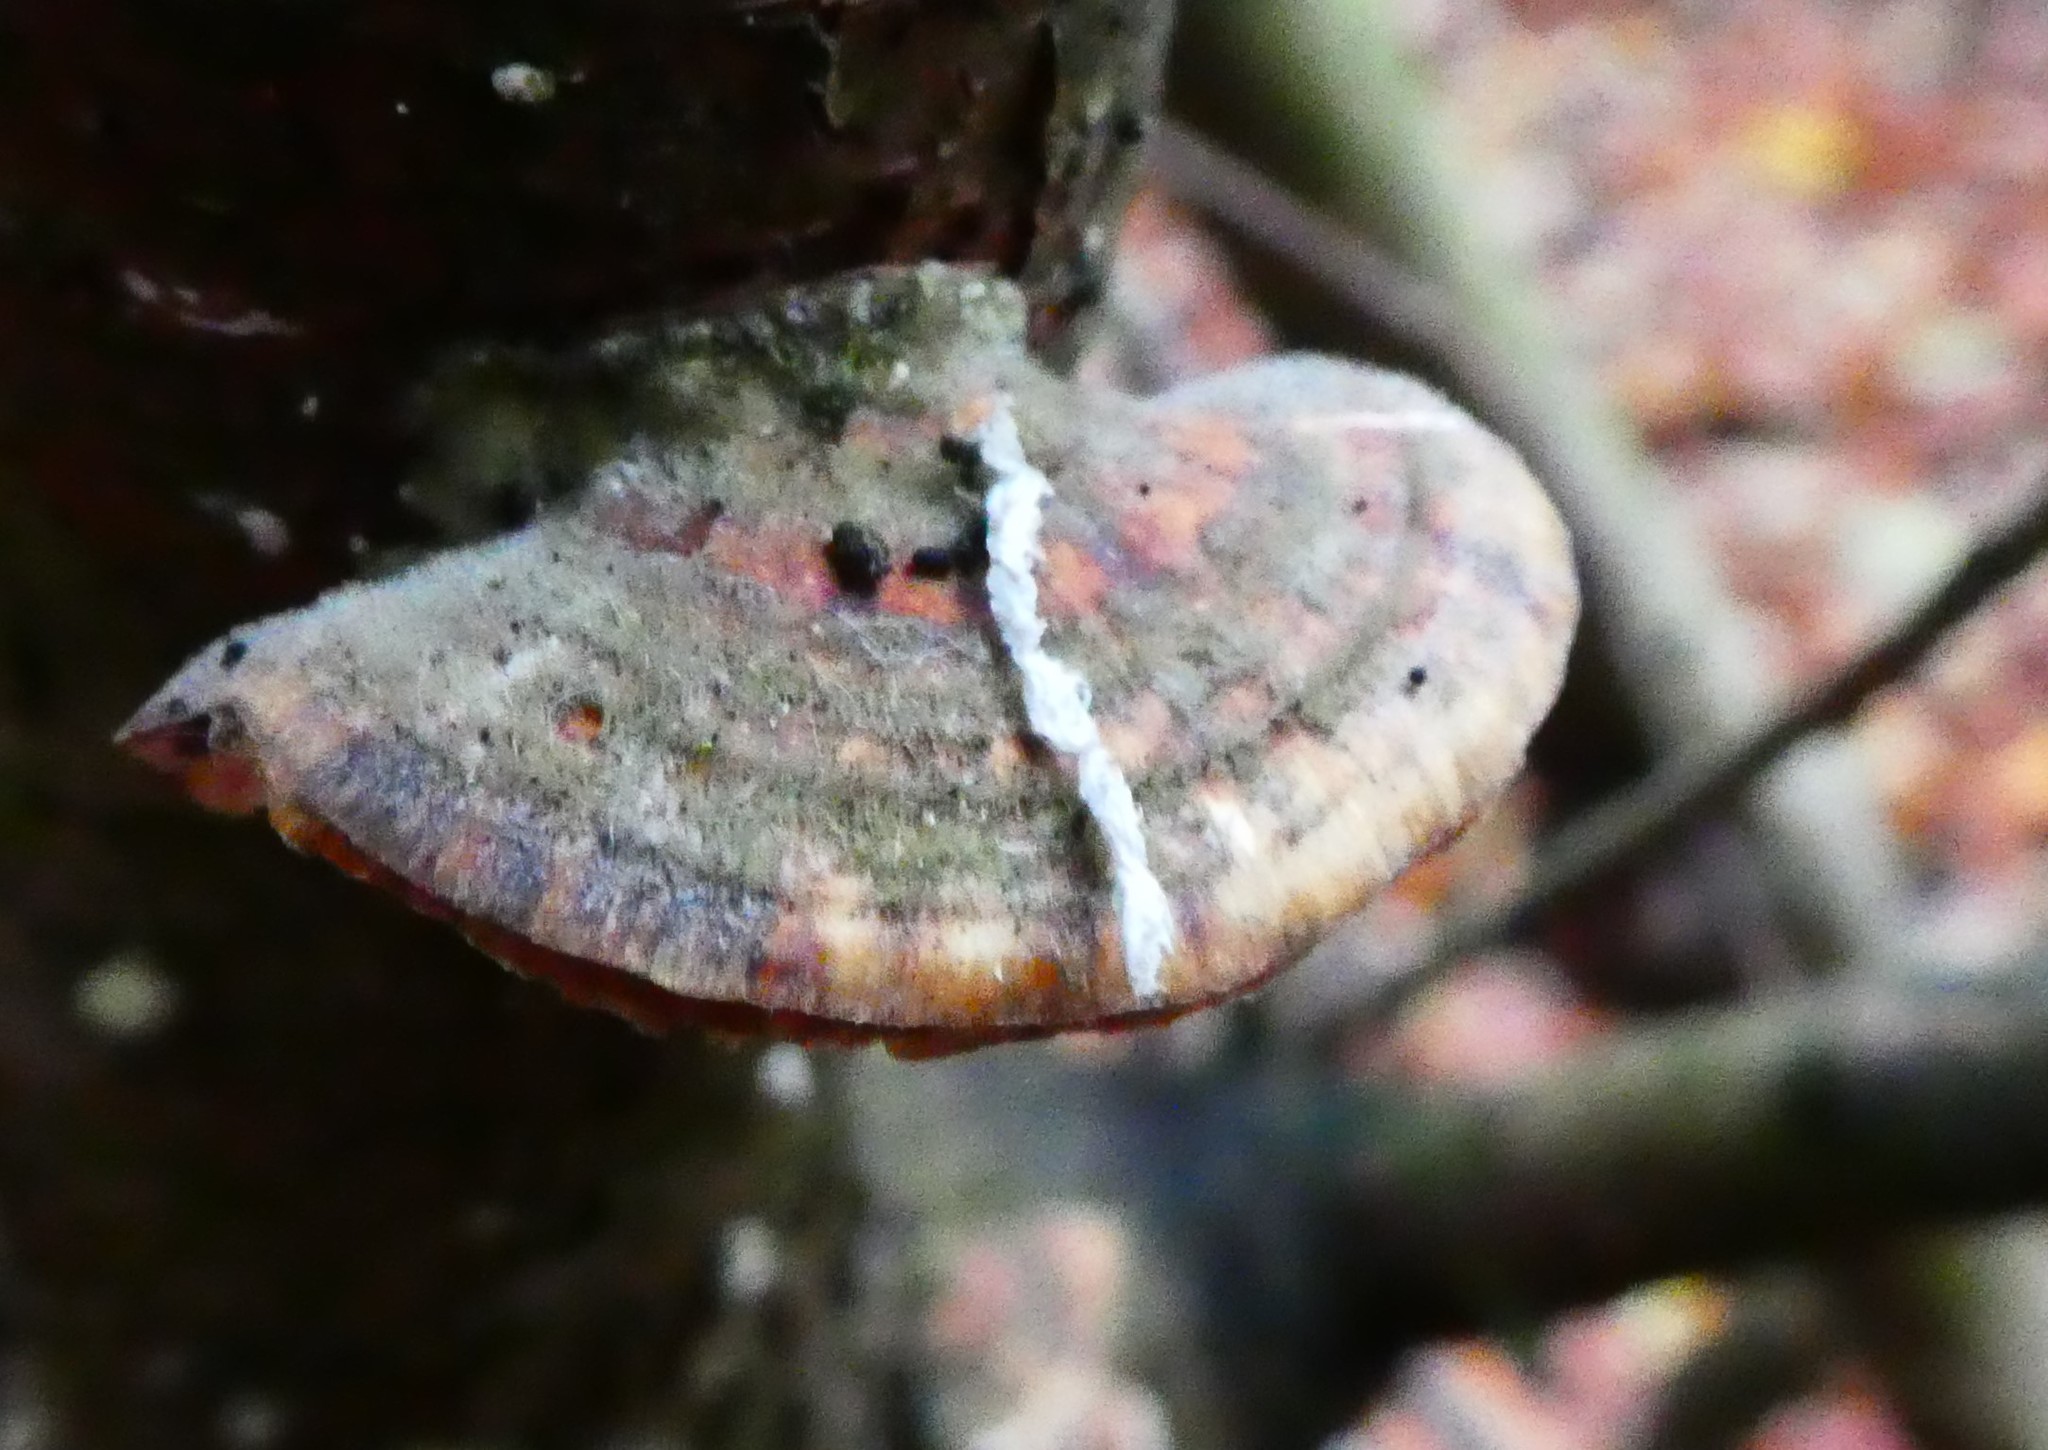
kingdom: Fungi
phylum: Basidiomycota
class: Agaricomycetes
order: Polyporales
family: Polyporaceae
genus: Trametes
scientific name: Trametes versicolor
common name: Turkeytail
